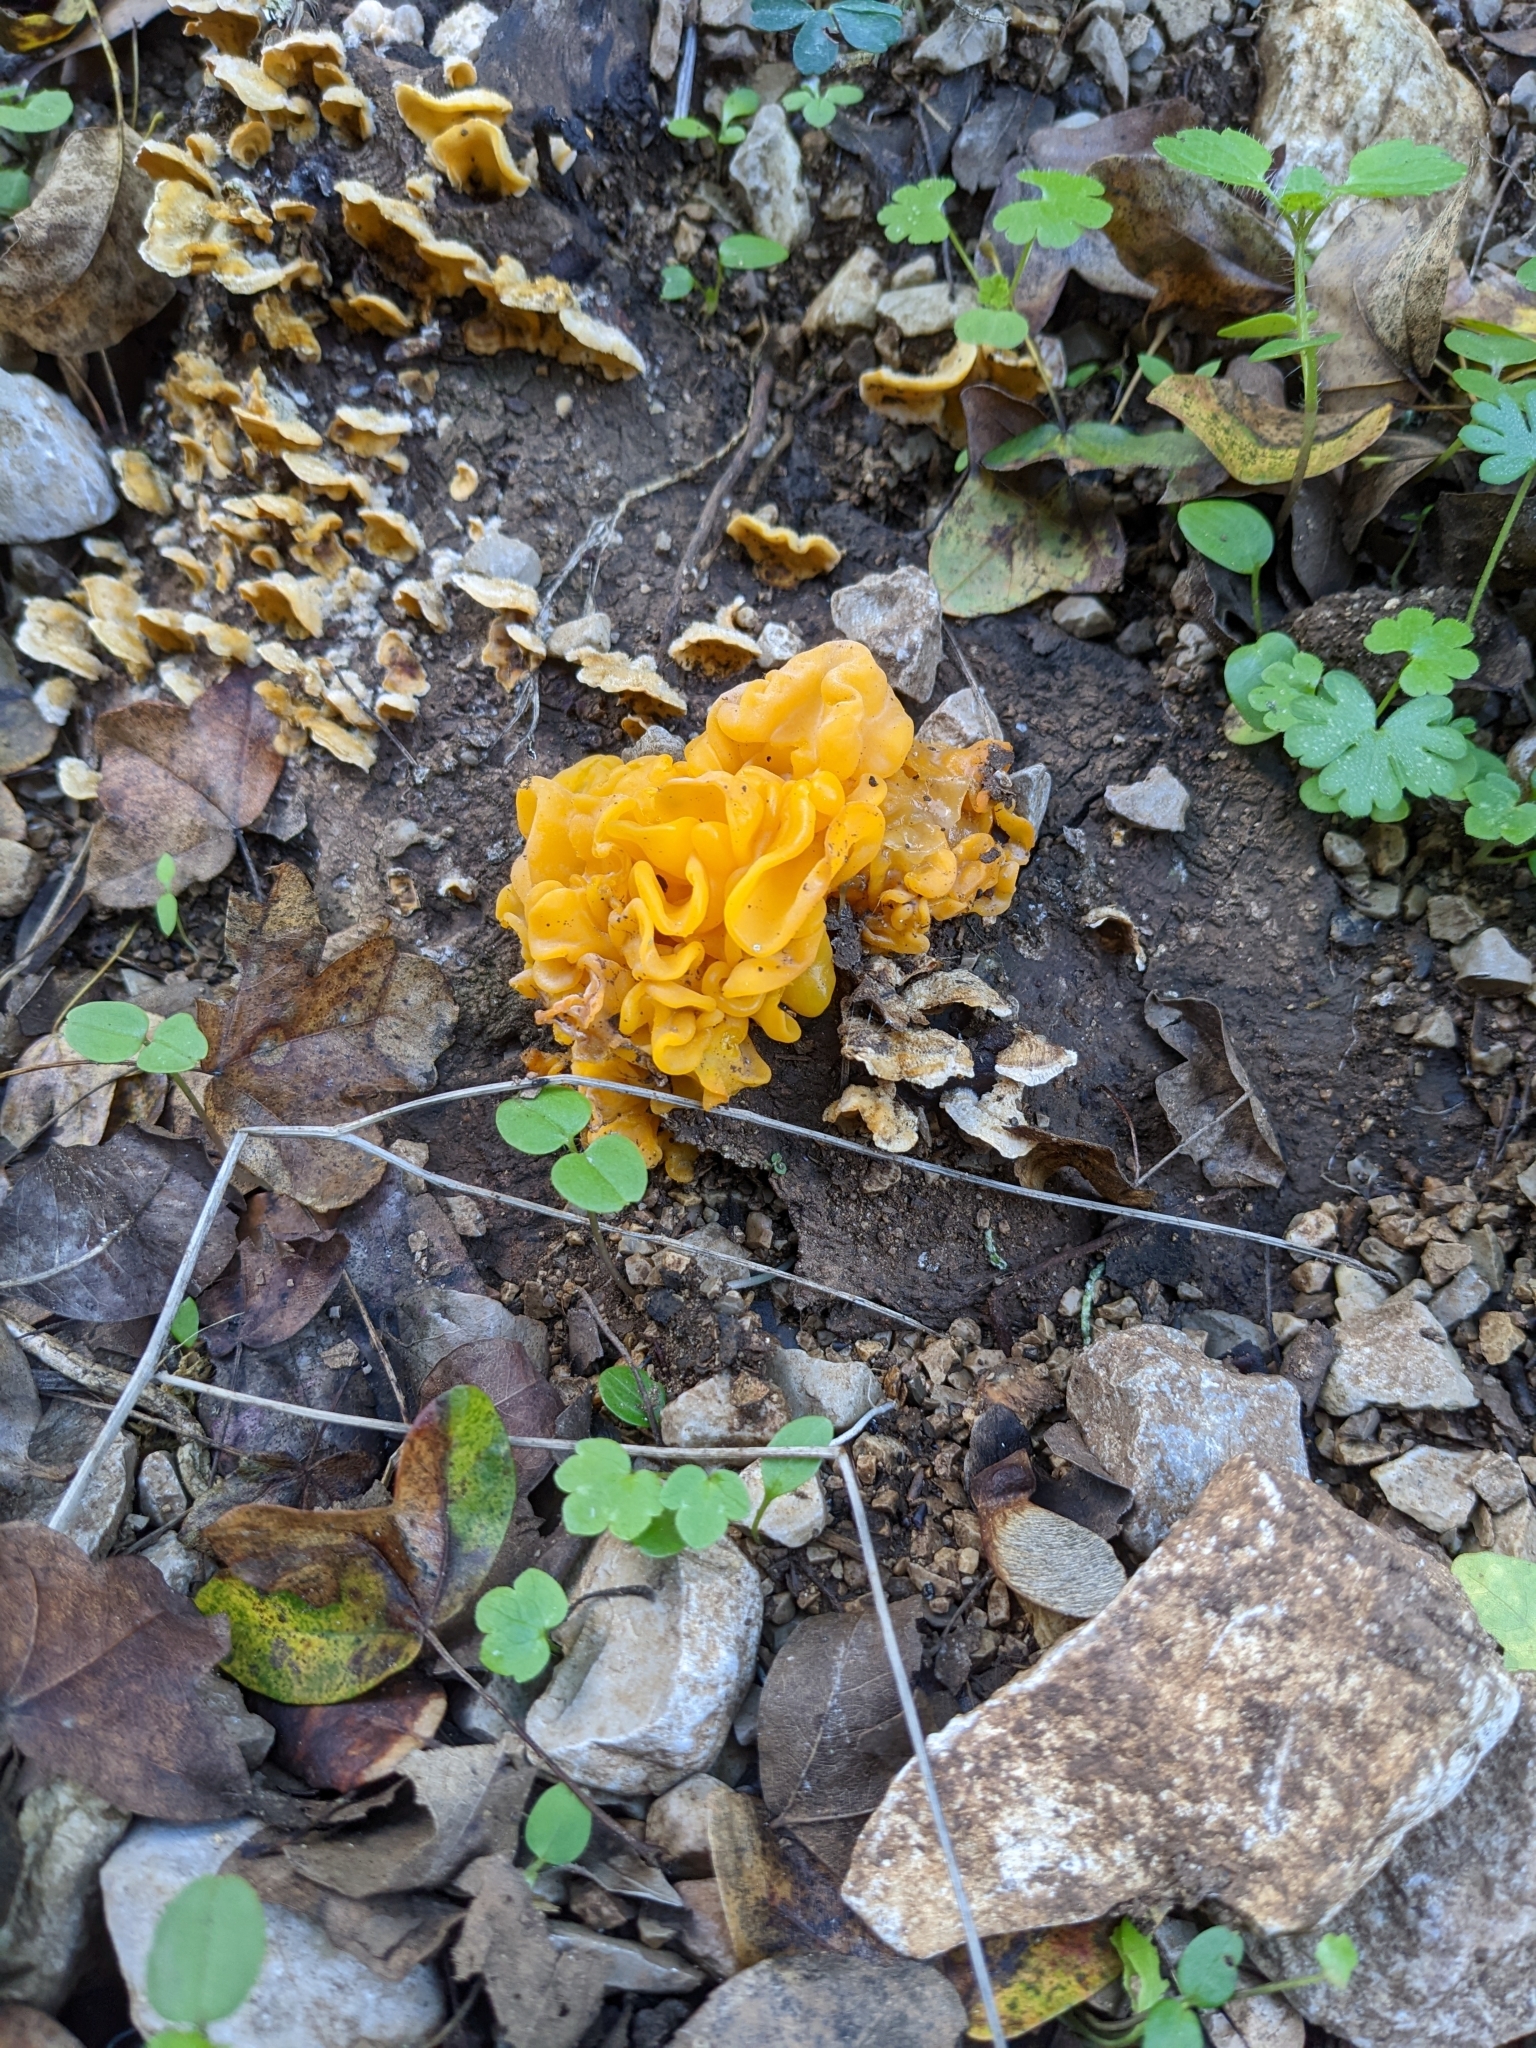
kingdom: Fungi
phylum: Basidiomycota
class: Tremellomycetes
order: Tremellales
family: Naemateliaceae
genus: Naematelia
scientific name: Naematelia aurantia
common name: Golden ear
